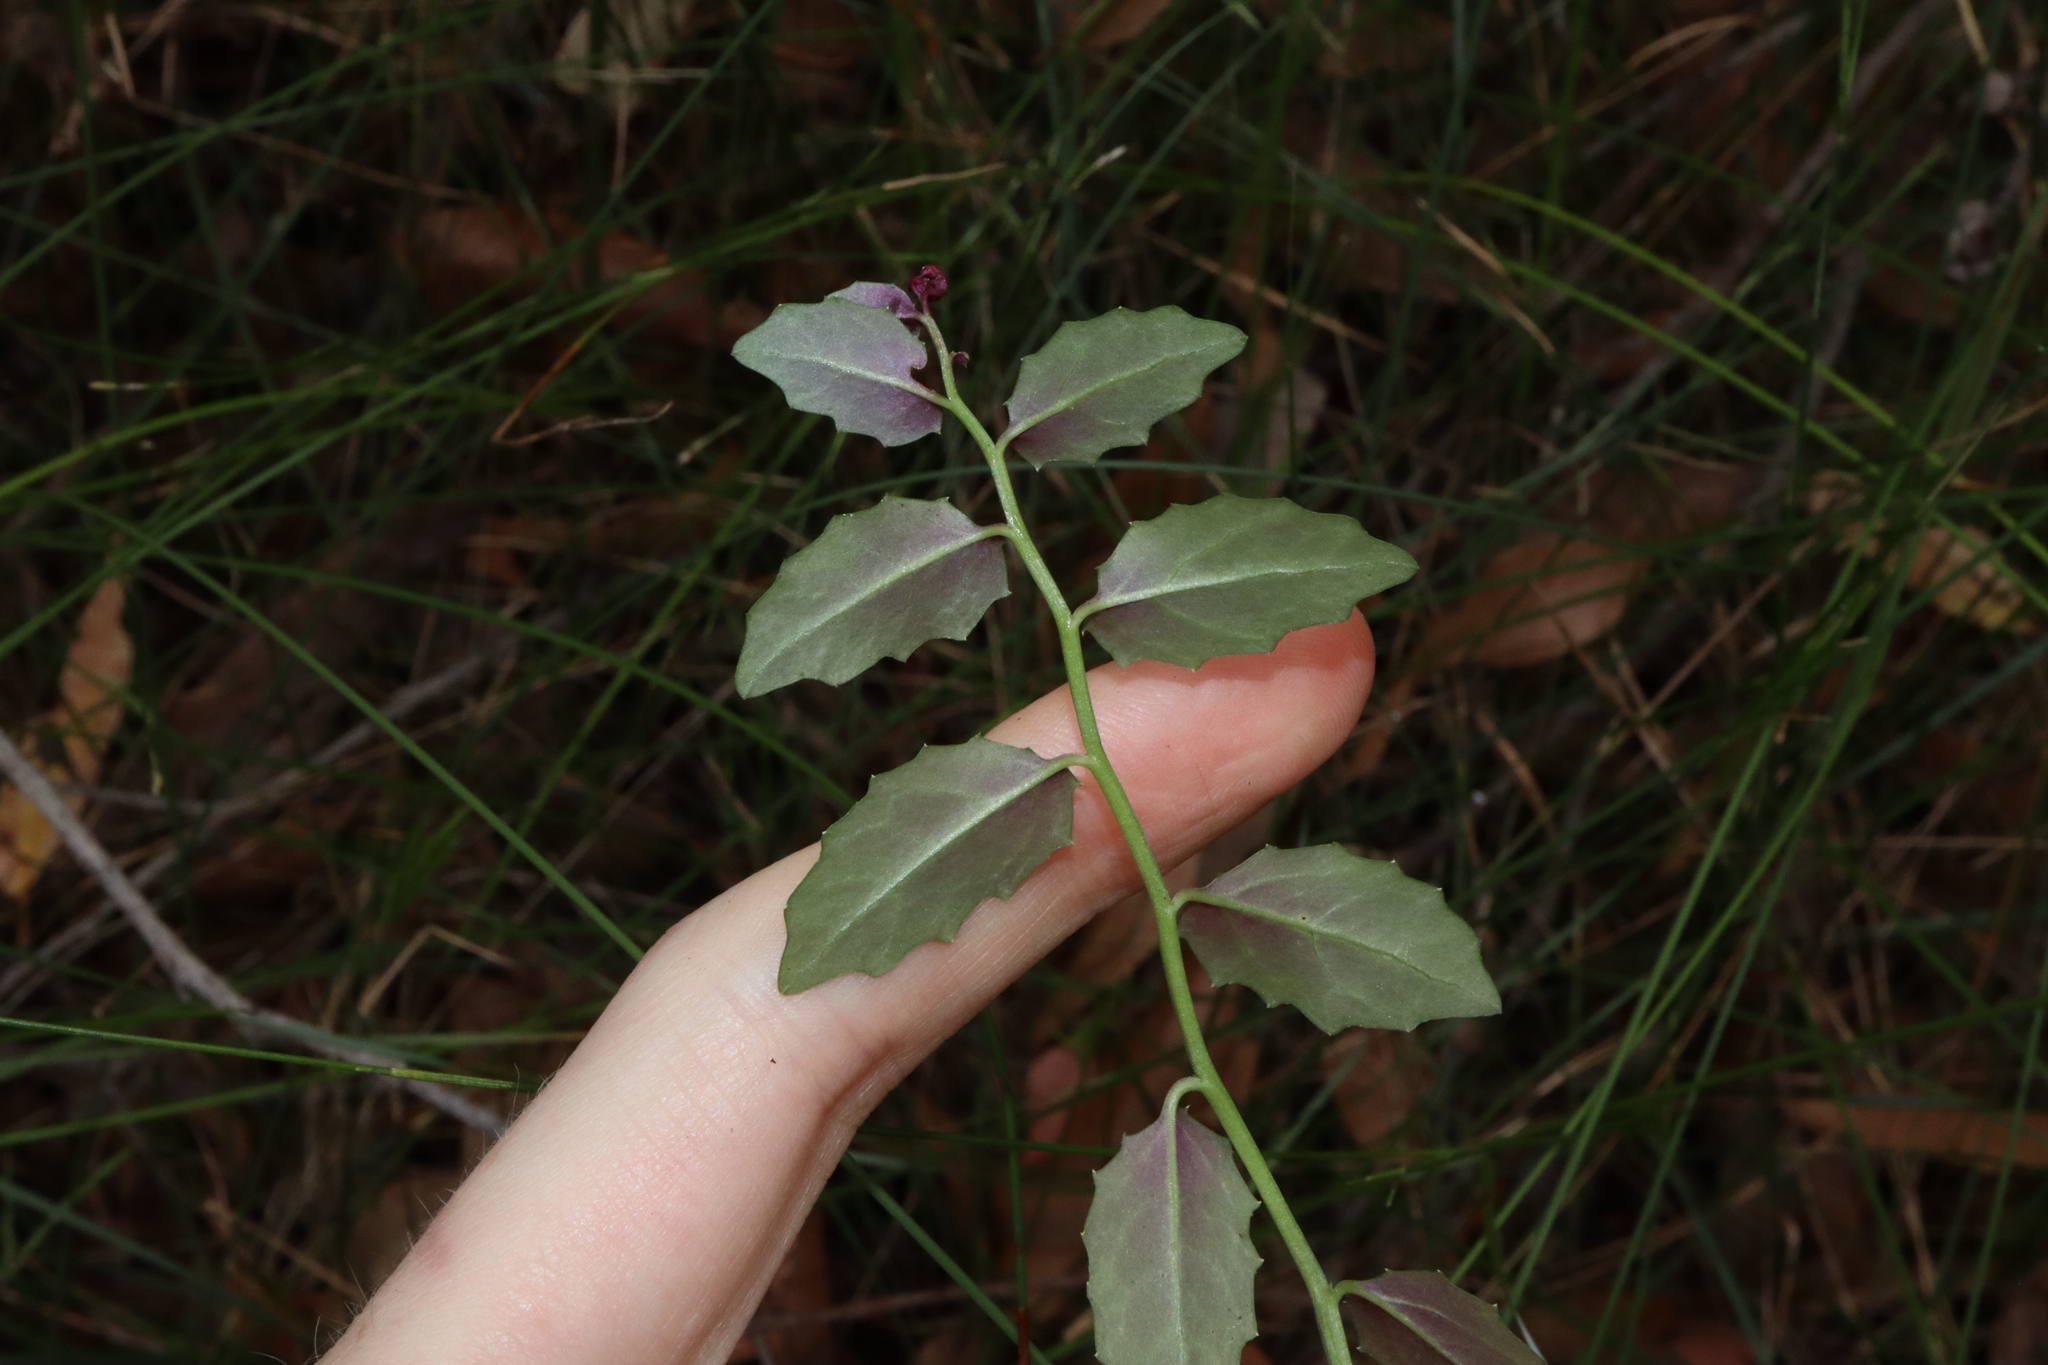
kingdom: Plantae
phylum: Tracheophyta
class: Magnoliopsida
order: Asterales
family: Campanulaceae
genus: Lobelia
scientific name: Lobelia purpurascens
